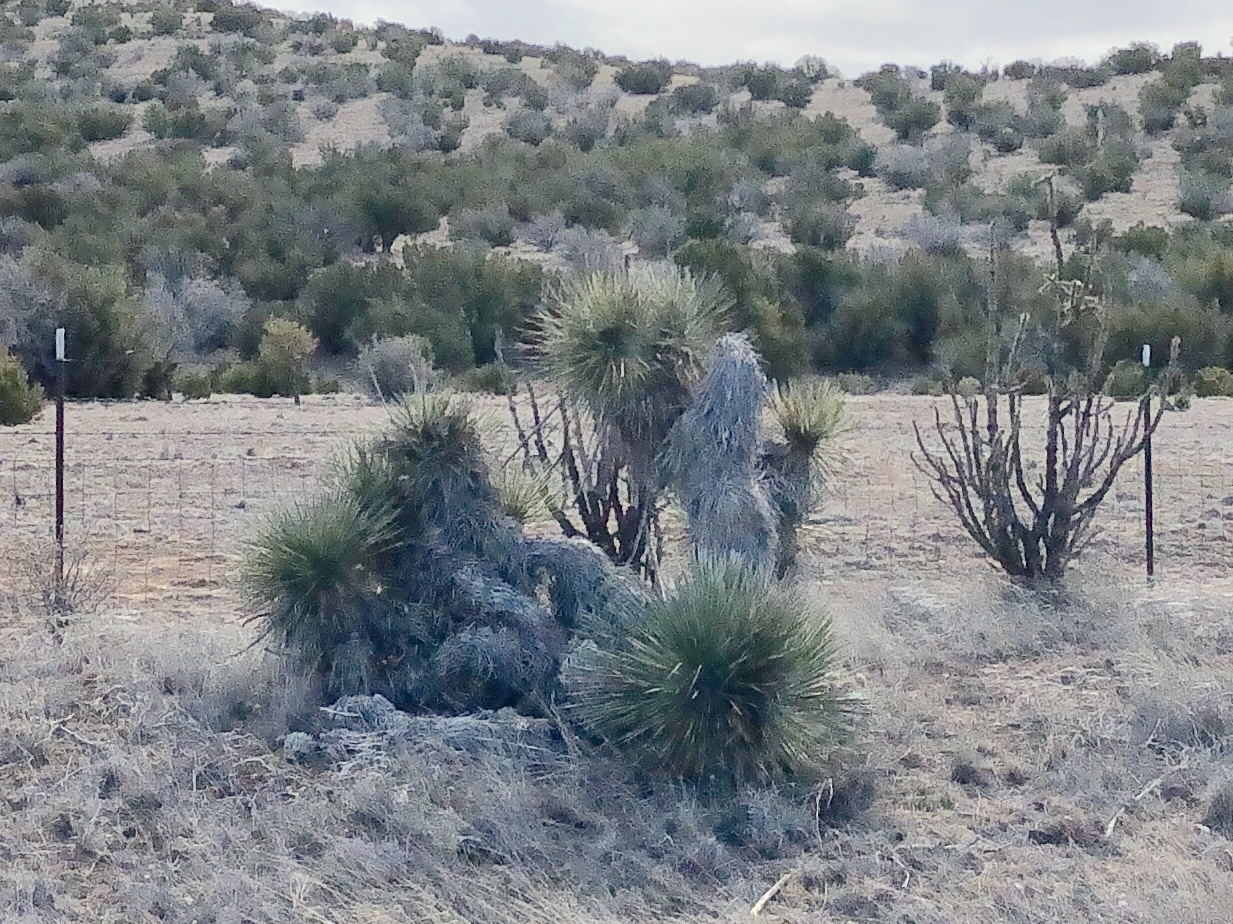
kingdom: Plantae
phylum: Tracheophyta
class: Liliopsida
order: Asparagales
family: Asparagaceae
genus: Yucca
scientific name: Yucca elata
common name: Palmella
